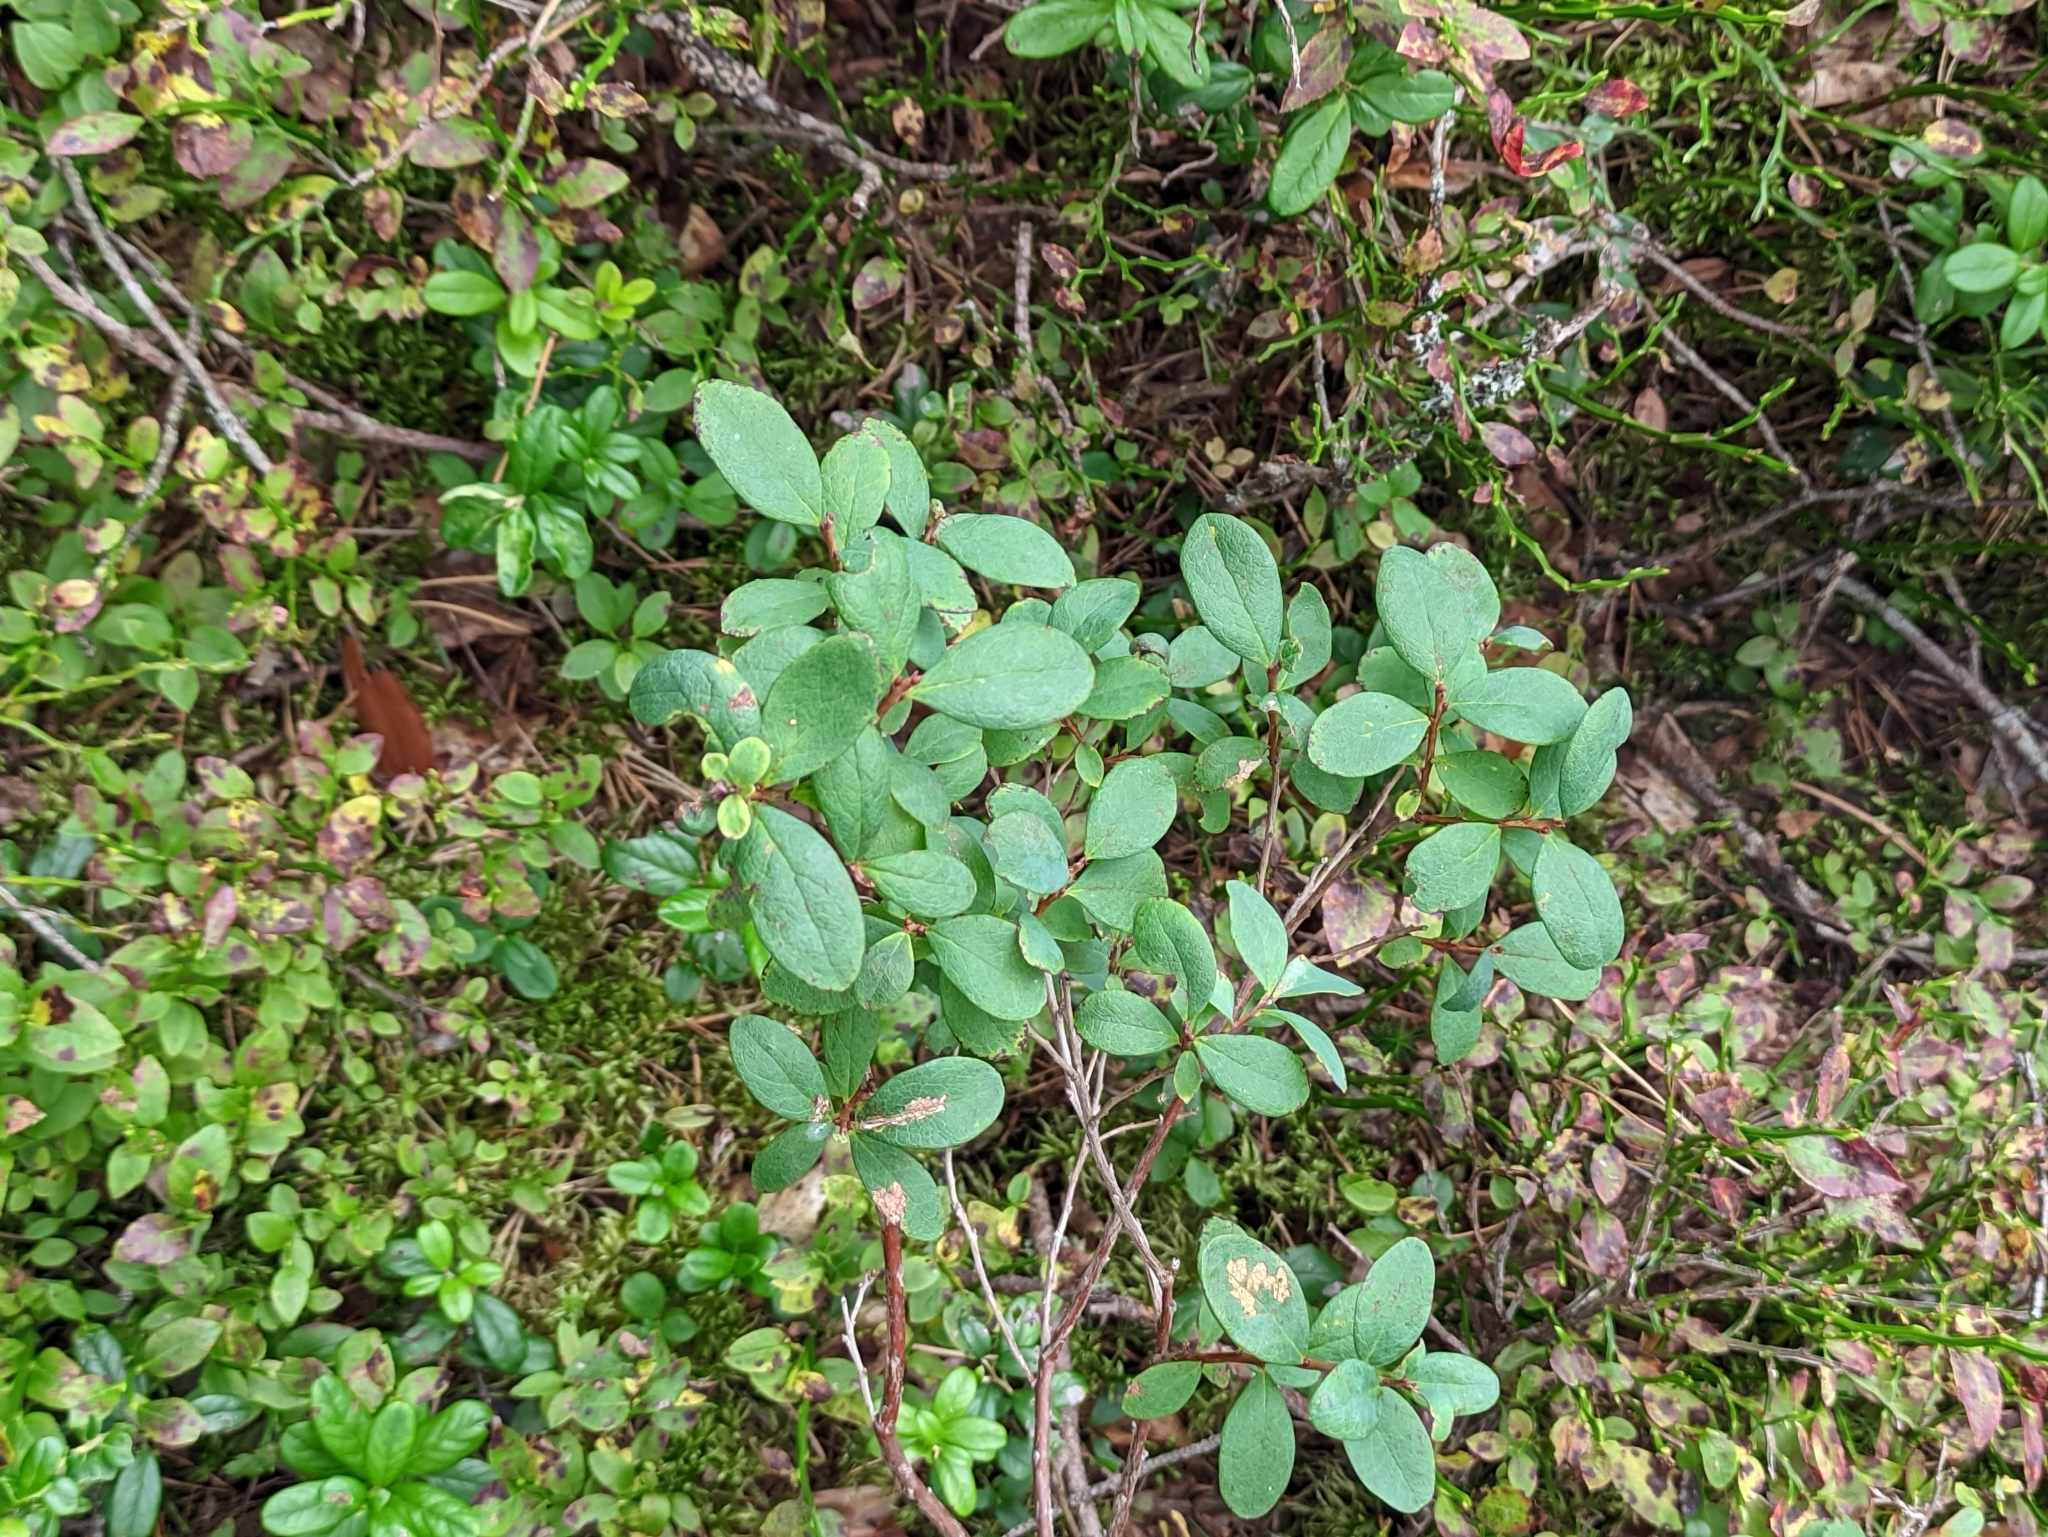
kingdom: Plantae
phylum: Tracheophyta
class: Magnoliopsida
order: Ericales
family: Ericaceae
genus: Vaccinium
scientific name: Vaccinium uliginosum
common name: Bog bilberry
